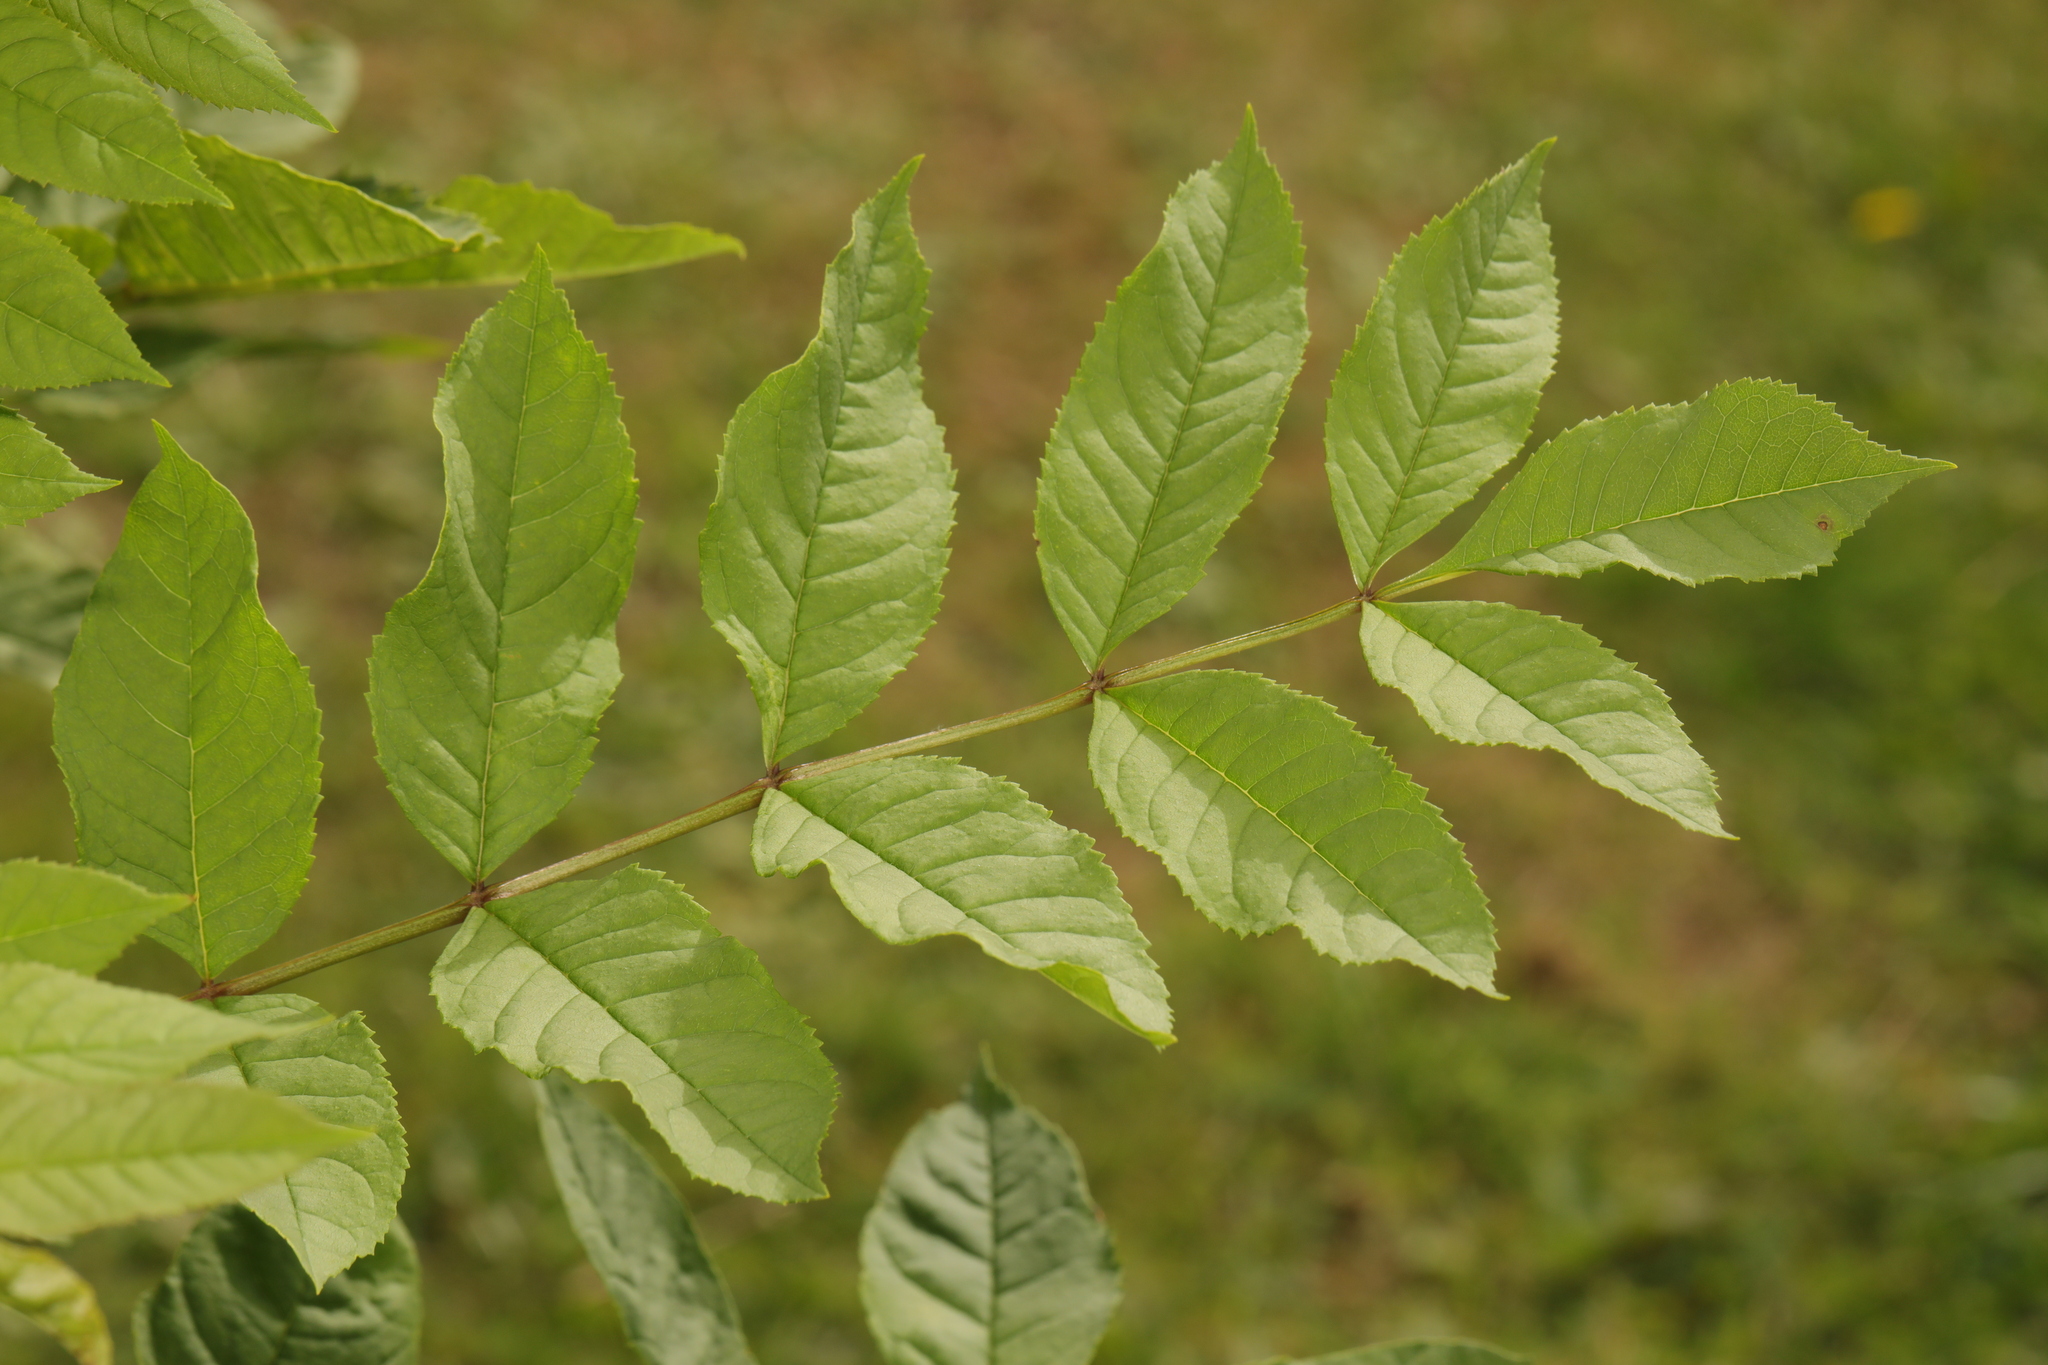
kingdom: Plantae
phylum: Tracheophyta
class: Magnoliopsida
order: Lamiales
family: Oleaceae
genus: Fraxinus
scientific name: Fraxinus excelsior
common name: European ash
